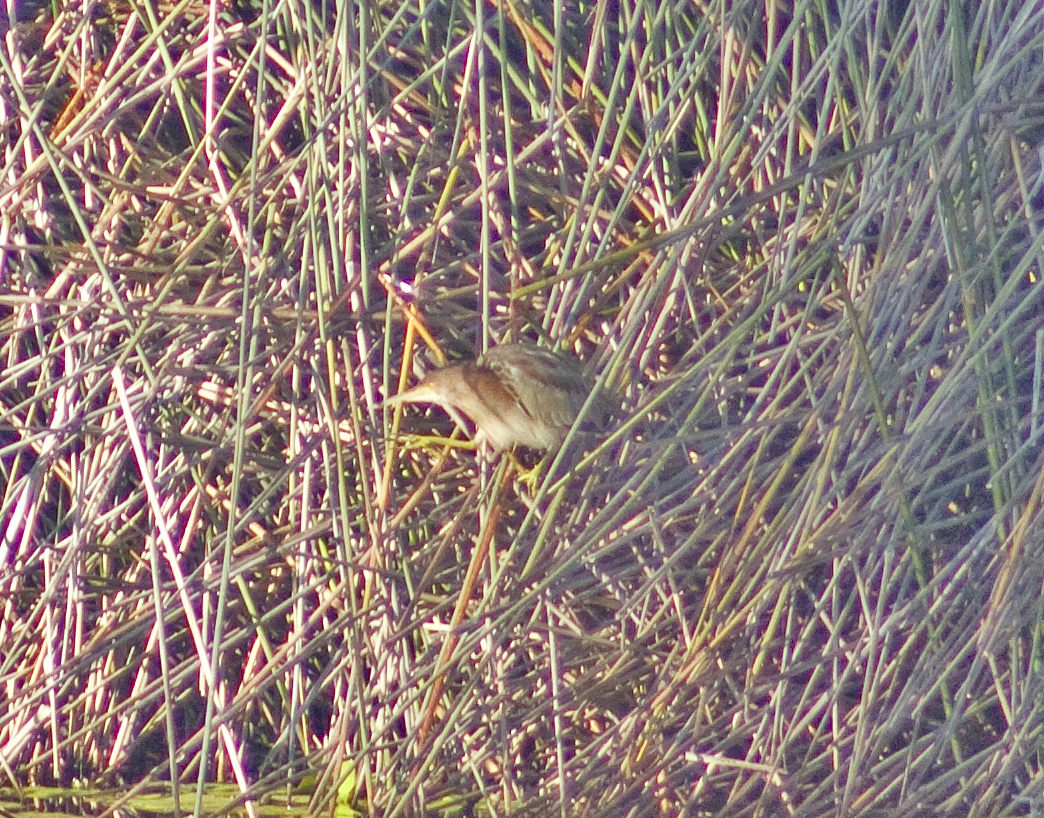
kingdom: Animalia
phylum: Chordata
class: Aves
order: Pelecaniformes
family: Ardeidae
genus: Ixobrychus
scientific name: Ixobrychus sinensis
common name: Yellow bittern
